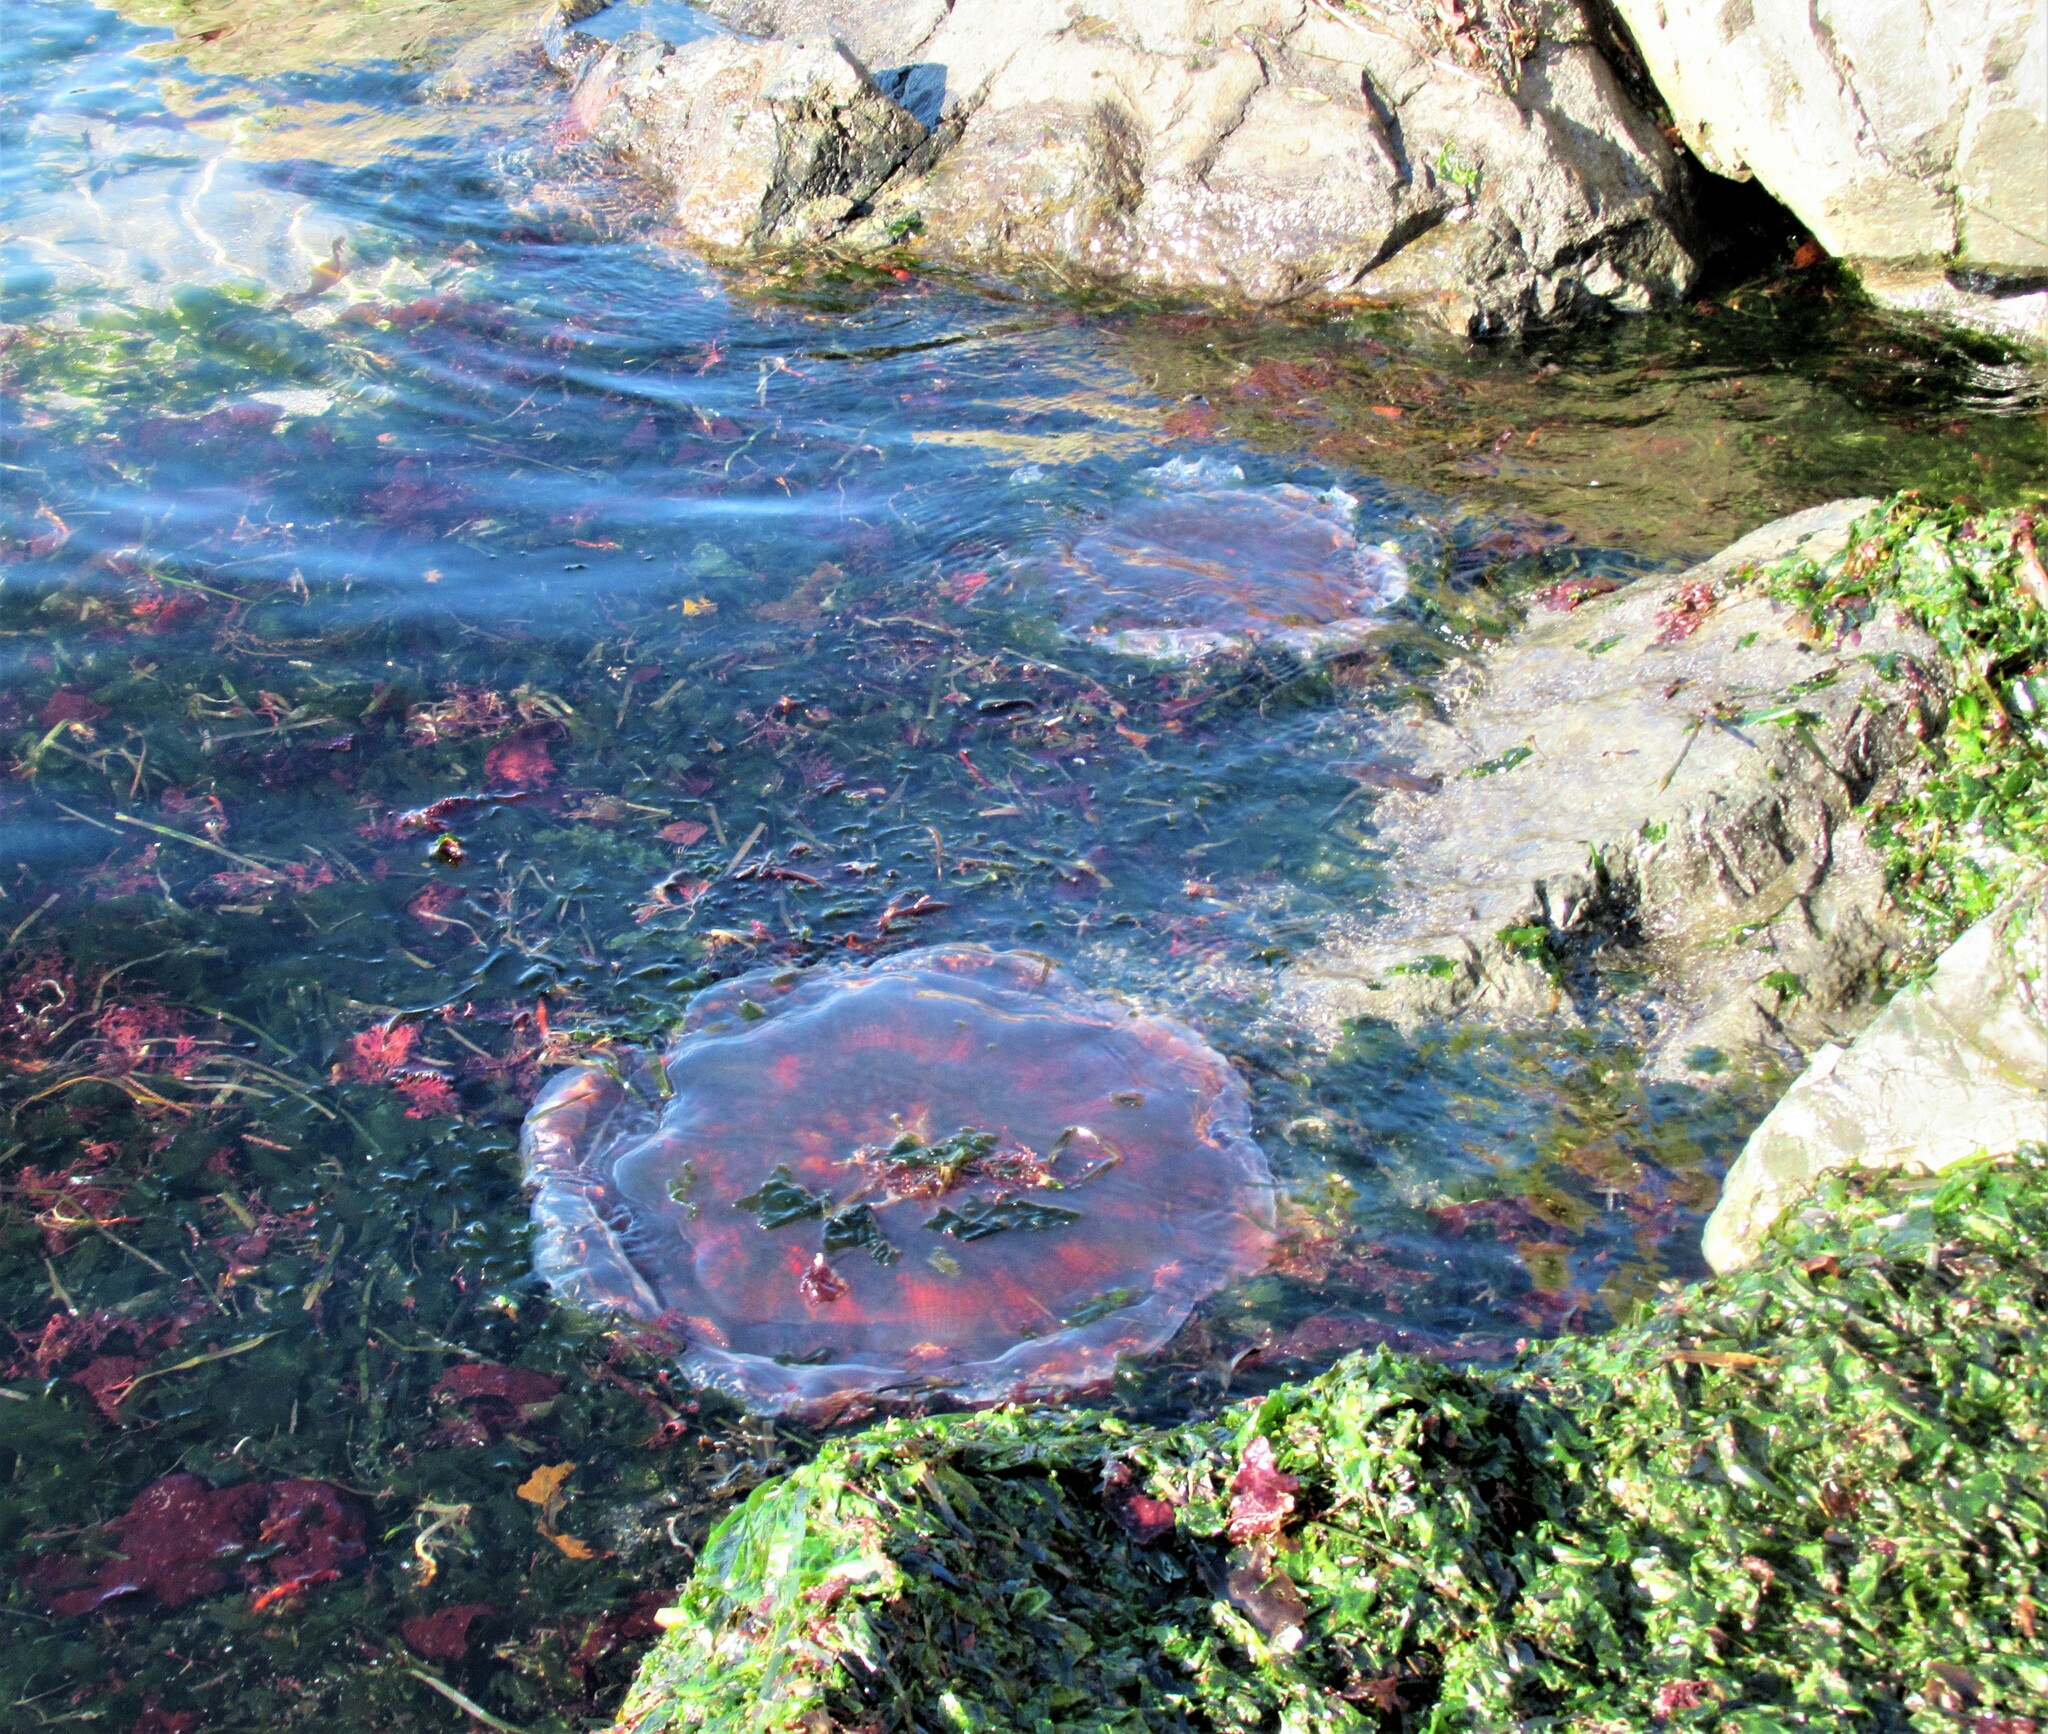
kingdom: Animalia
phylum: Cnidaria
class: Scyphozoa
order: Semaeostomeae
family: Cyaneidae
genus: Cyanea
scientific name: Cyanea ferruginea
